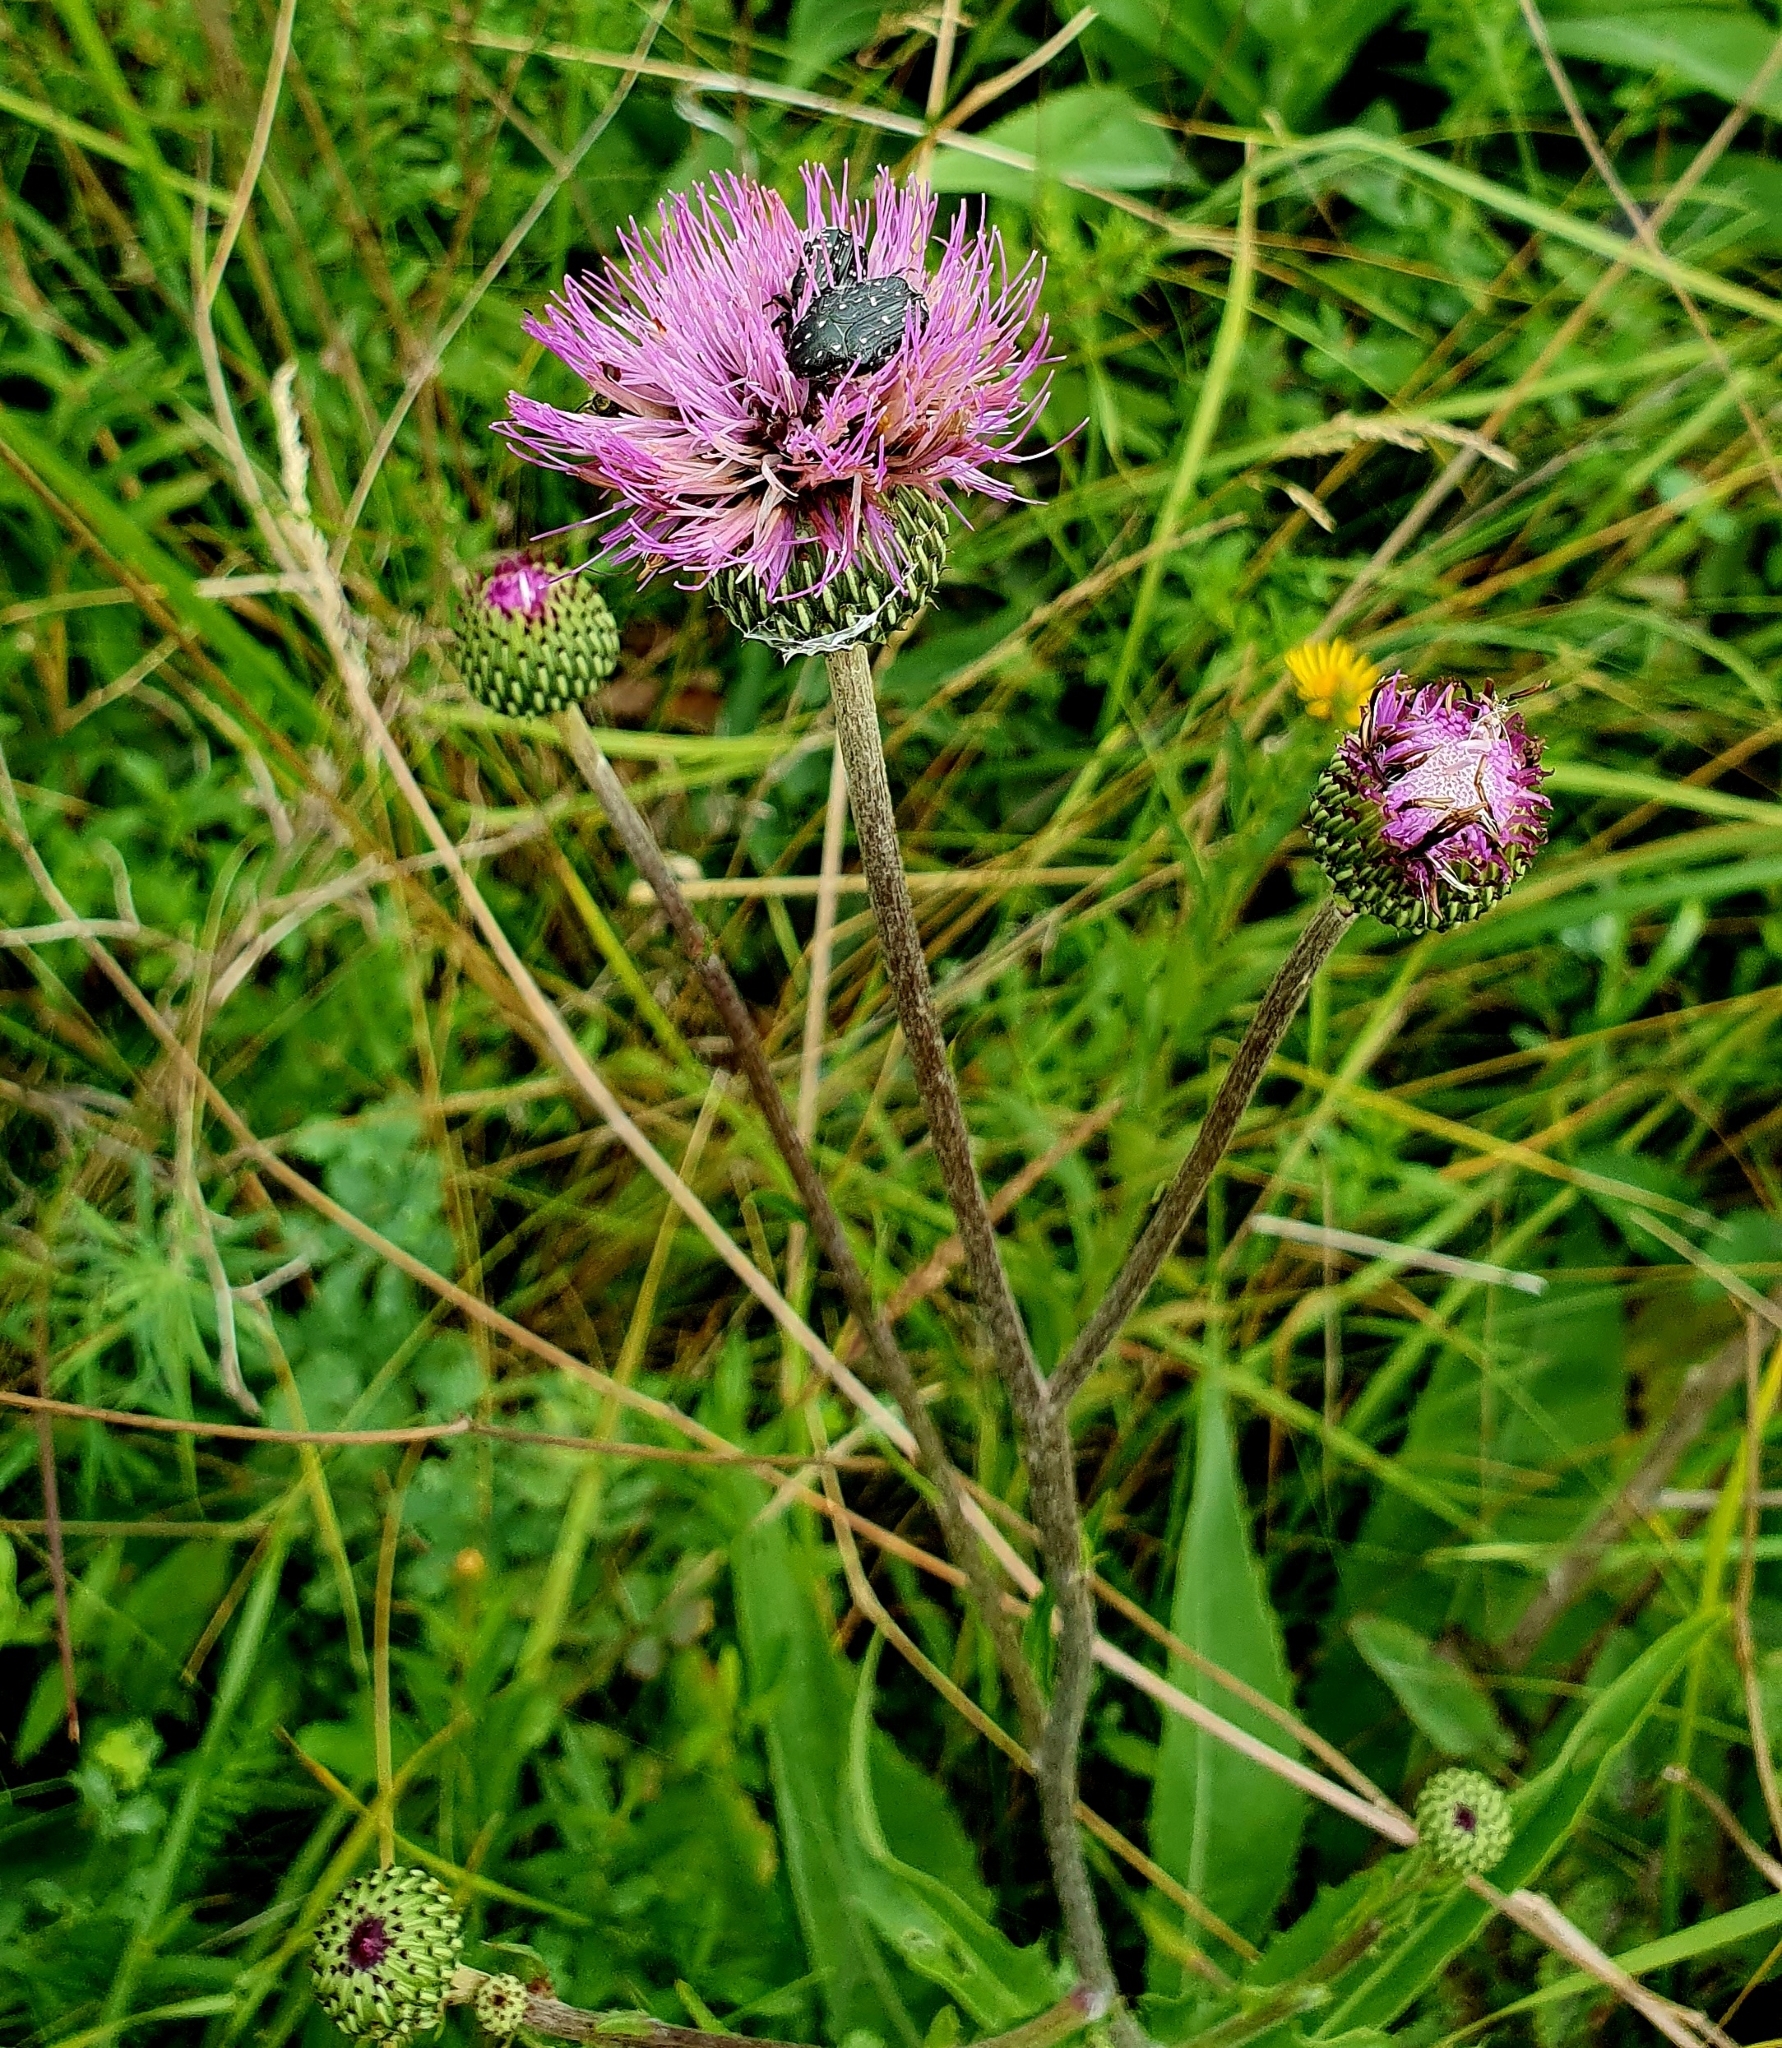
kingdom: Plantae
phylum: Tracheophyta
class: Magnoliopsida
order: Asterales
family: Asteraceae
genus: Cirsium
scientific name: Cirsium canum
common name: Queen anne's thistle
